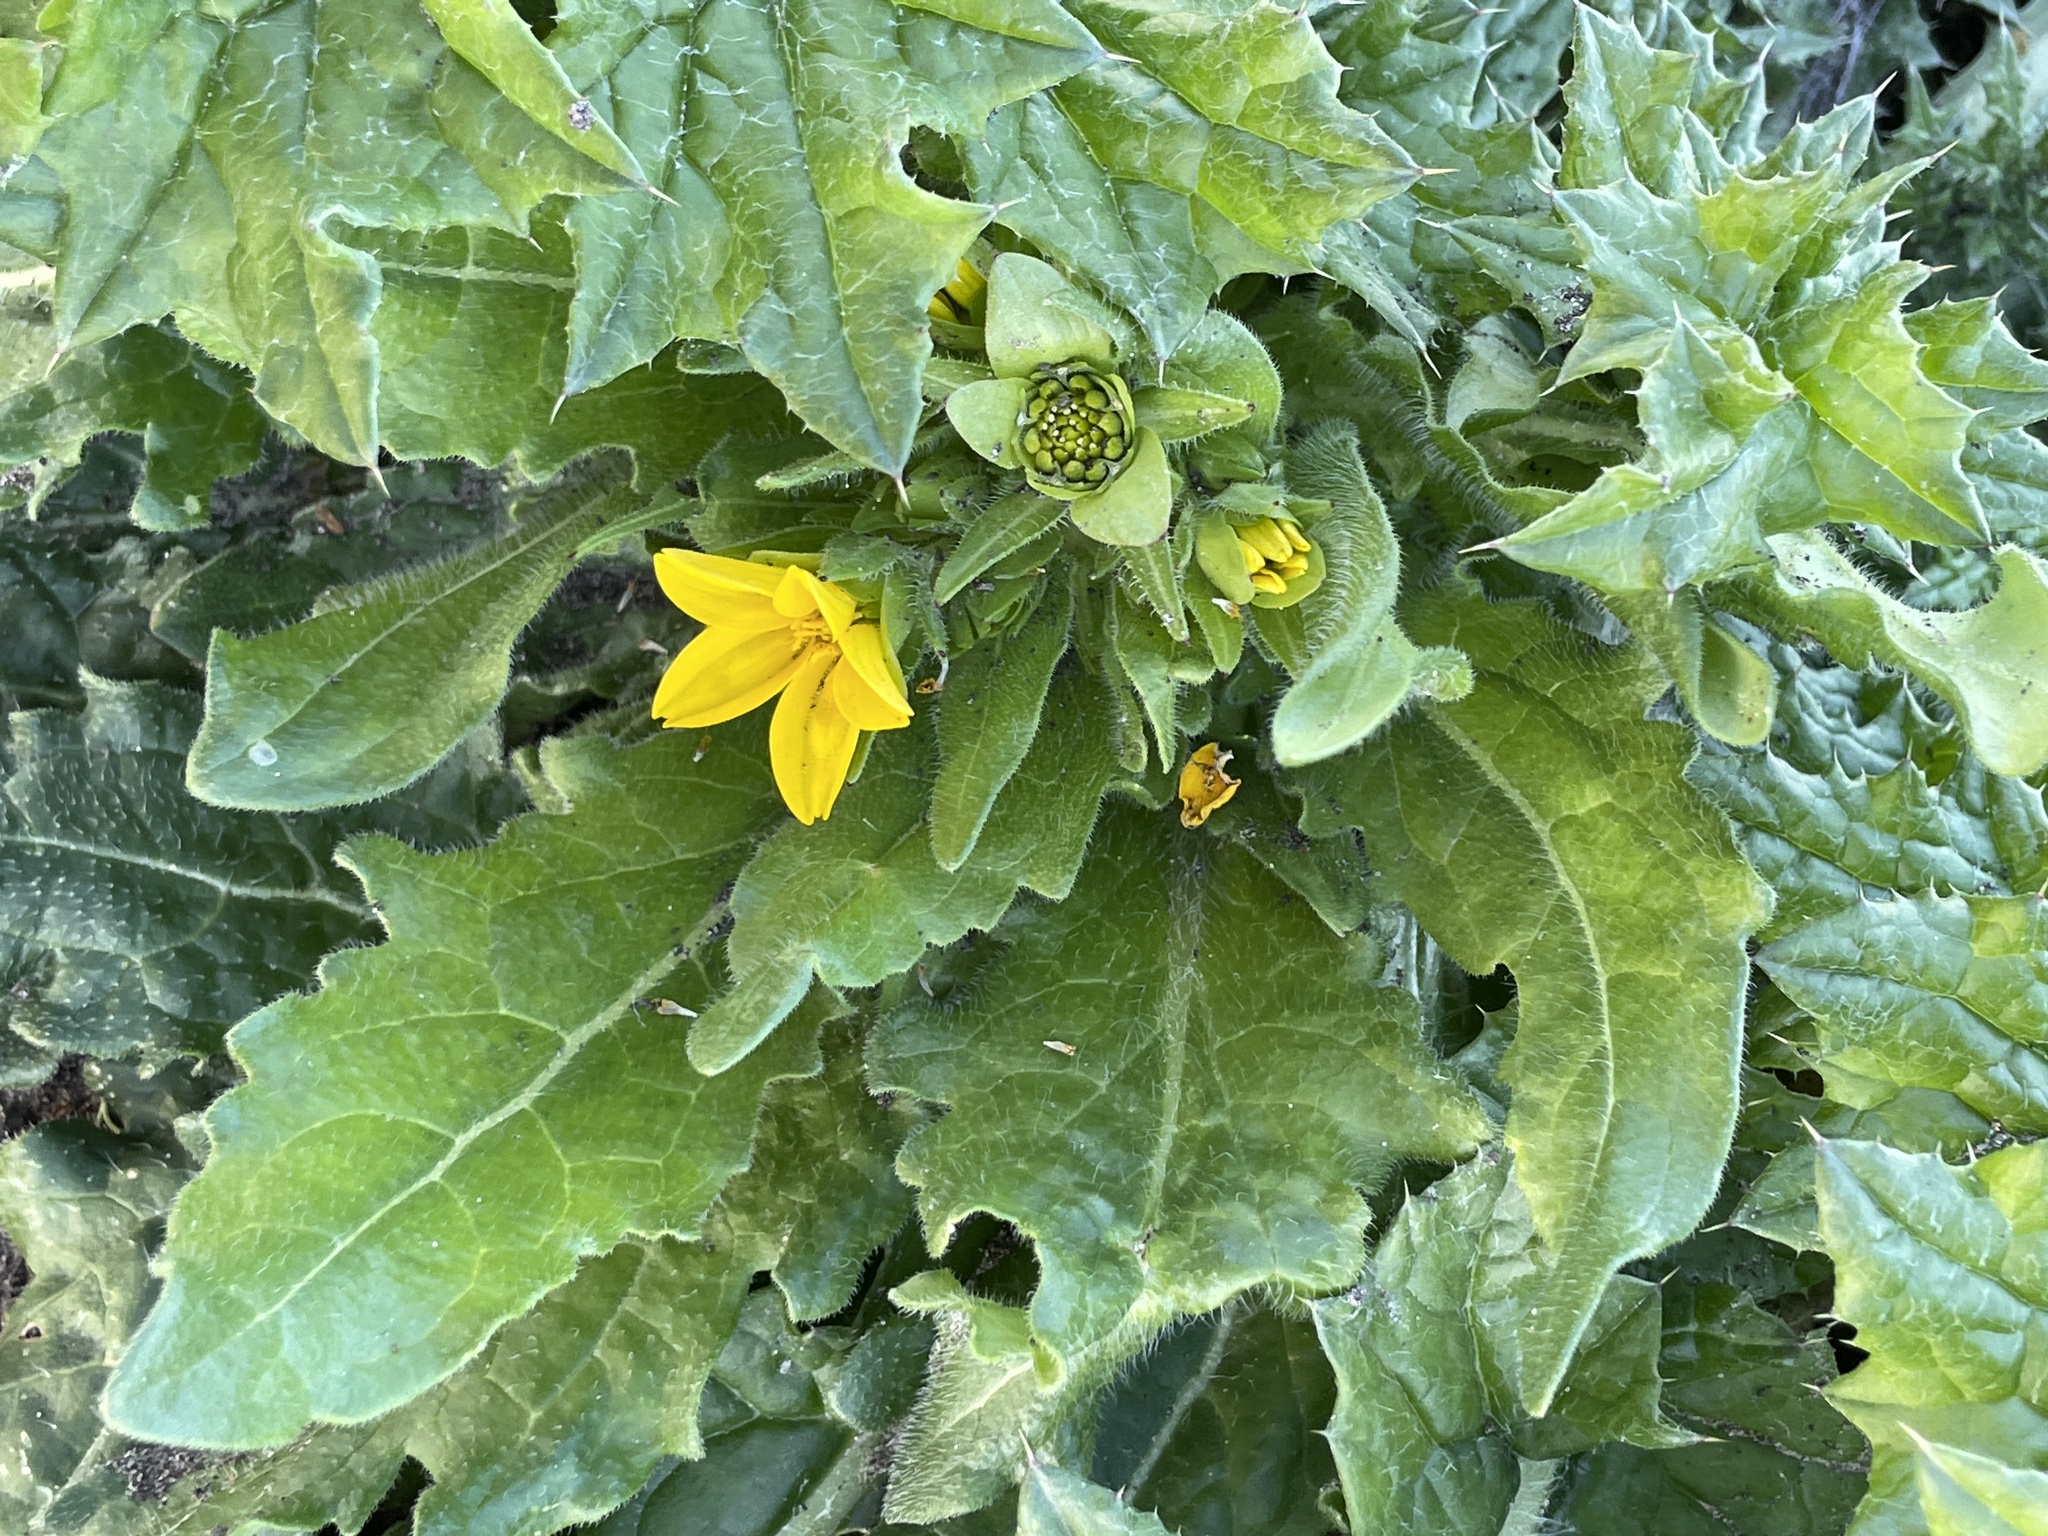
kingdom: Plantae
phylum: Tracheophyta
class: Magnoliopsida
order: Asterales
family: Asteraceae
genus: Lindheimera
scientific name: Lindheimera texana
